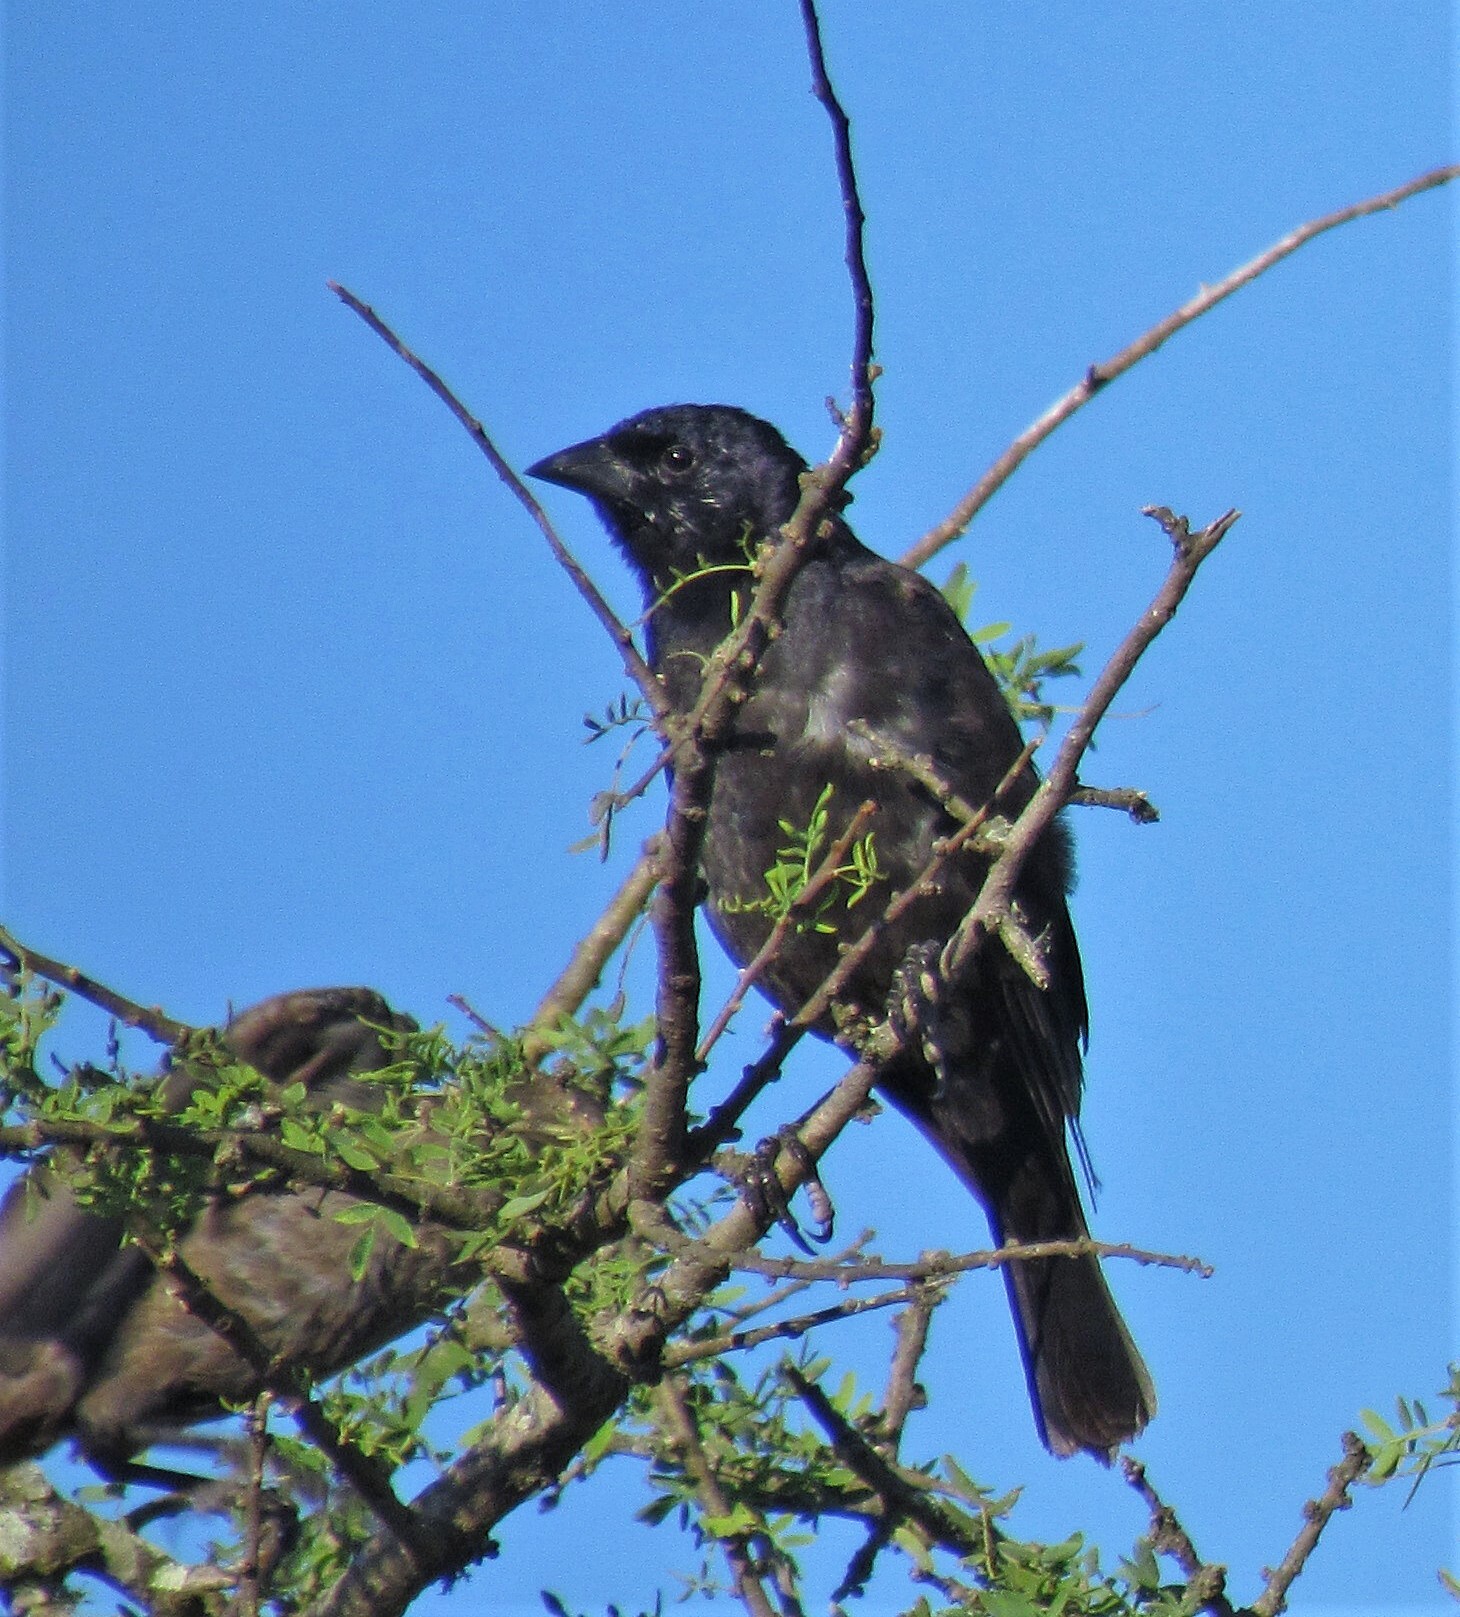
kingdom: Animalia
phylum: Chordata
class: Aves
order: Passeriformes
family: Icteridae
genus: Molothrus
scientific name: Molothrus bonariensis
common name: Shiny cowbird
